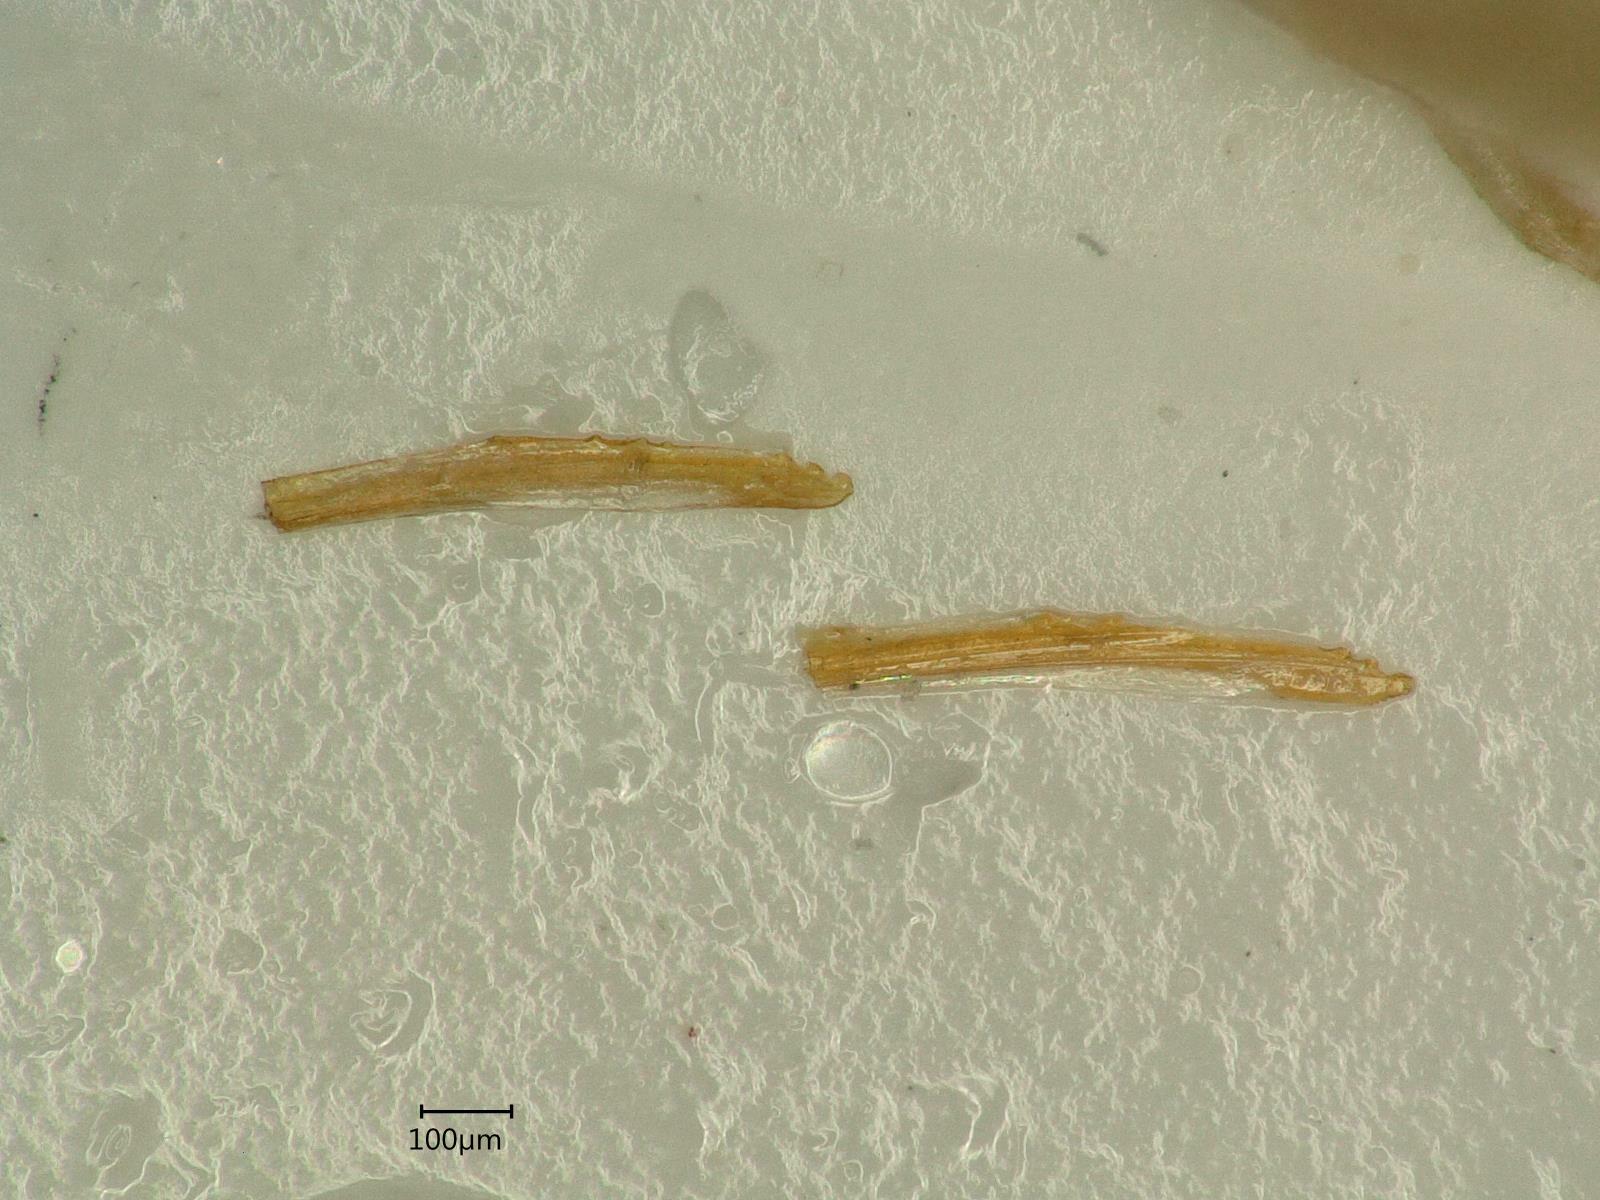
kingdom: Animalia
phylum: Arthropoda
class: Insecta
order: Hemiptera
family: Cicadellidae
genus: Macropsis
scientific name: Macropsis ocellata
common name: Leafhopper
